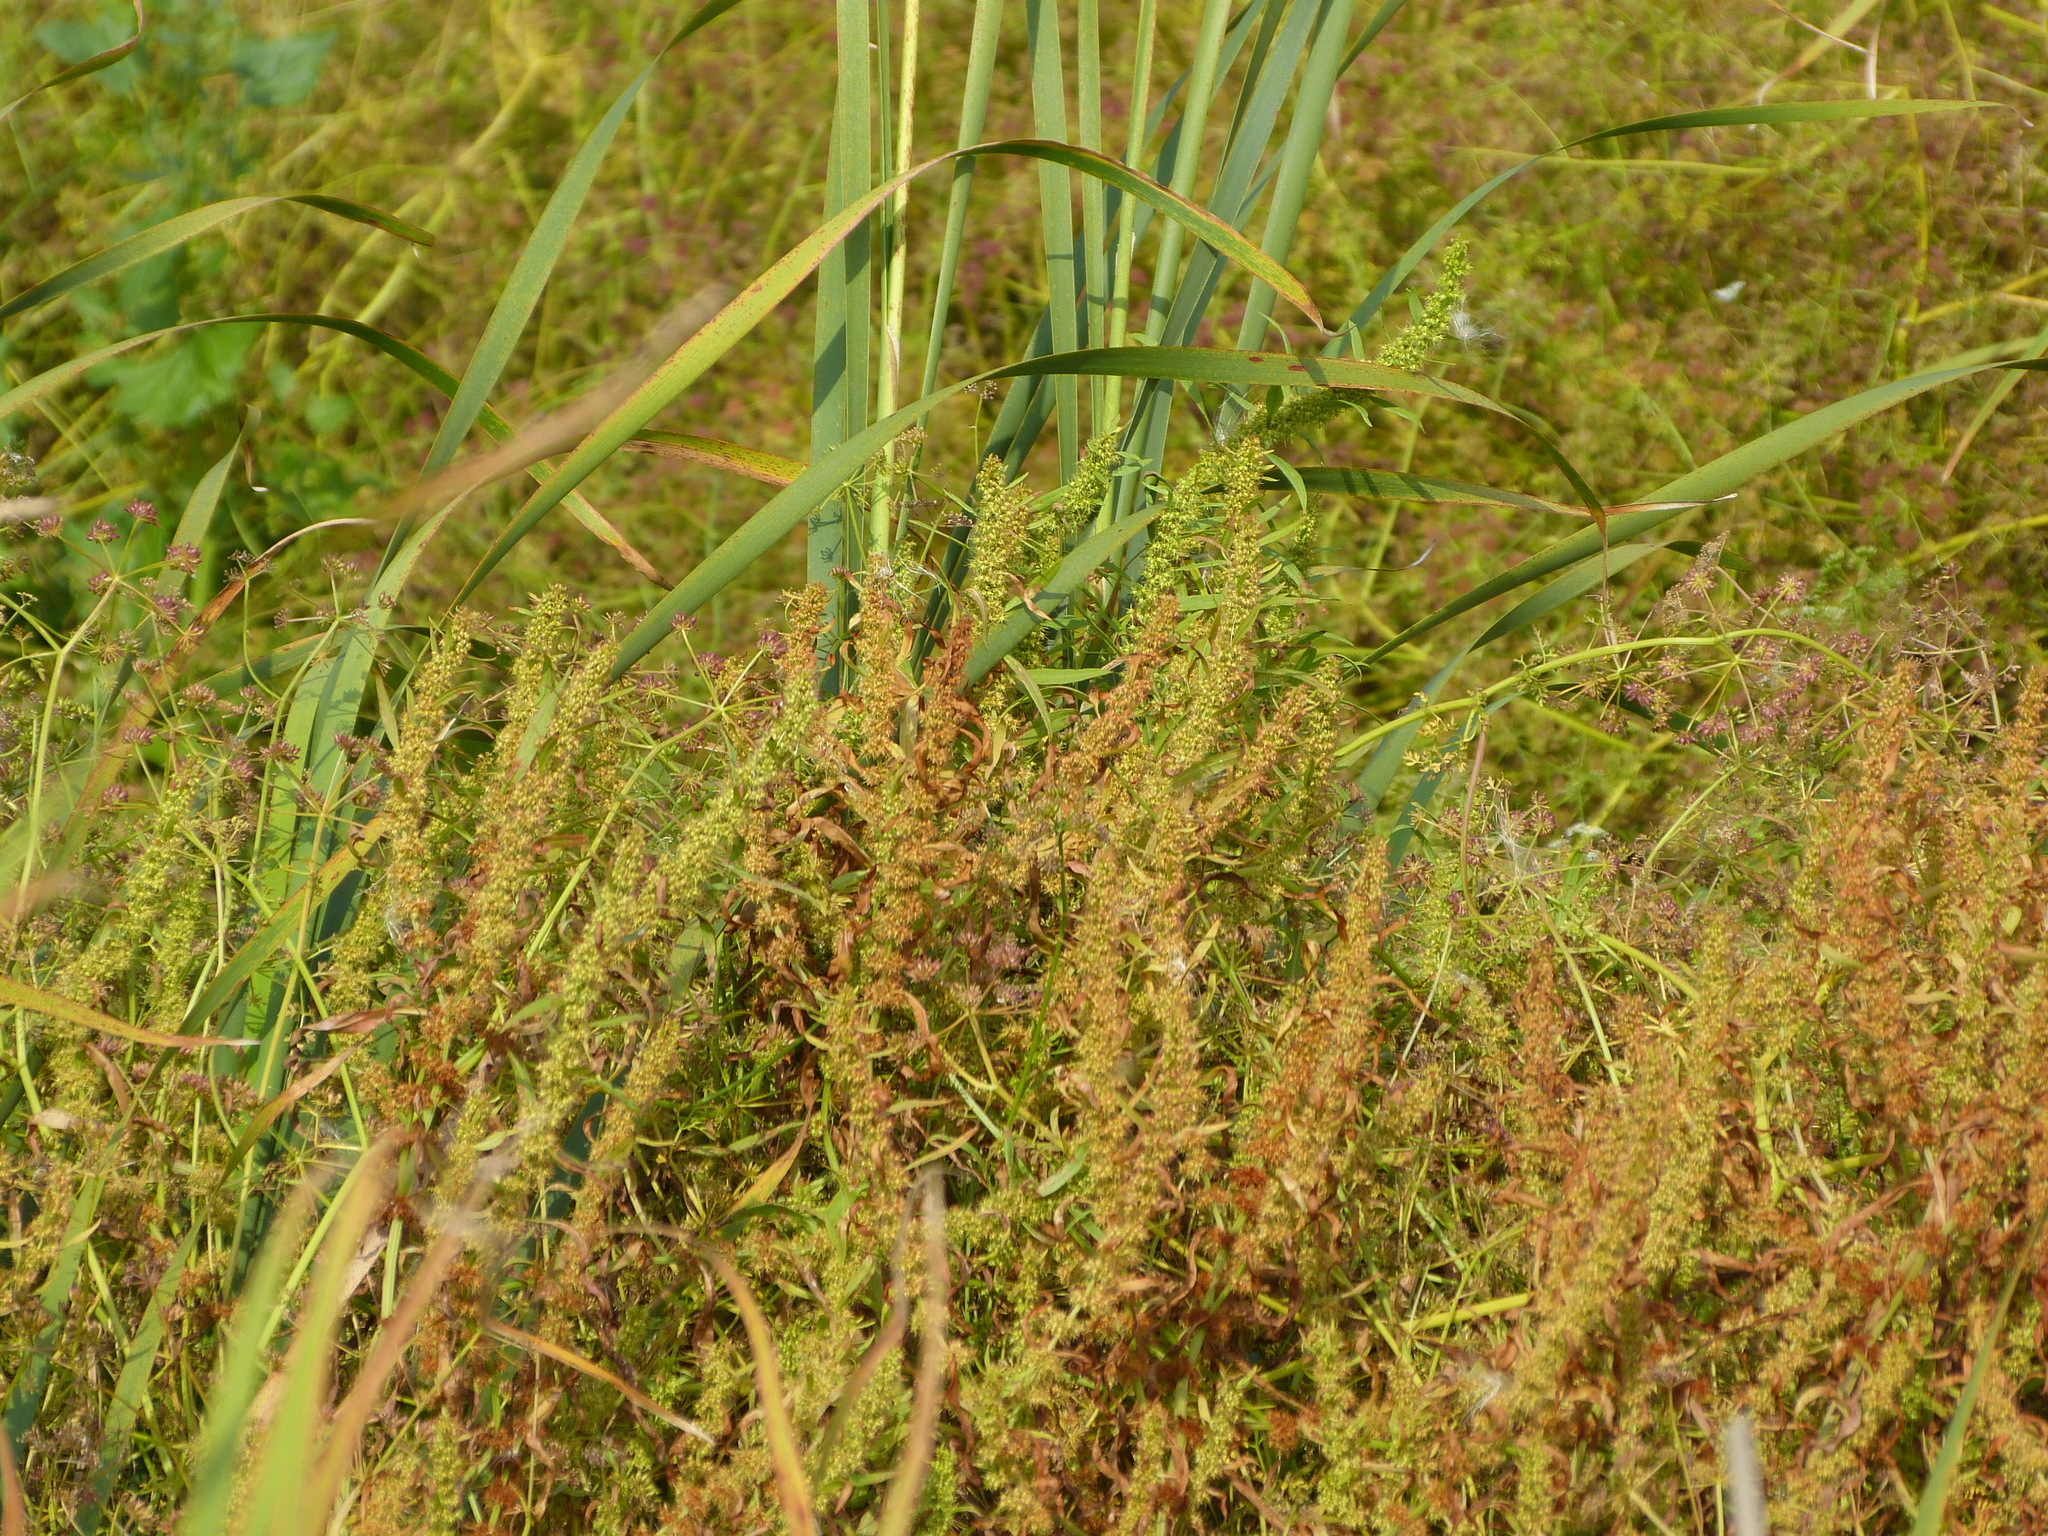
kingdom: Plantae
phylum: Tracheophyta
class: Magnoliopsida
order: Caryophyllales
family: Polygonaceae
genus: Rumex
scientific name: Rumex maritimus
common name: Golden dock
